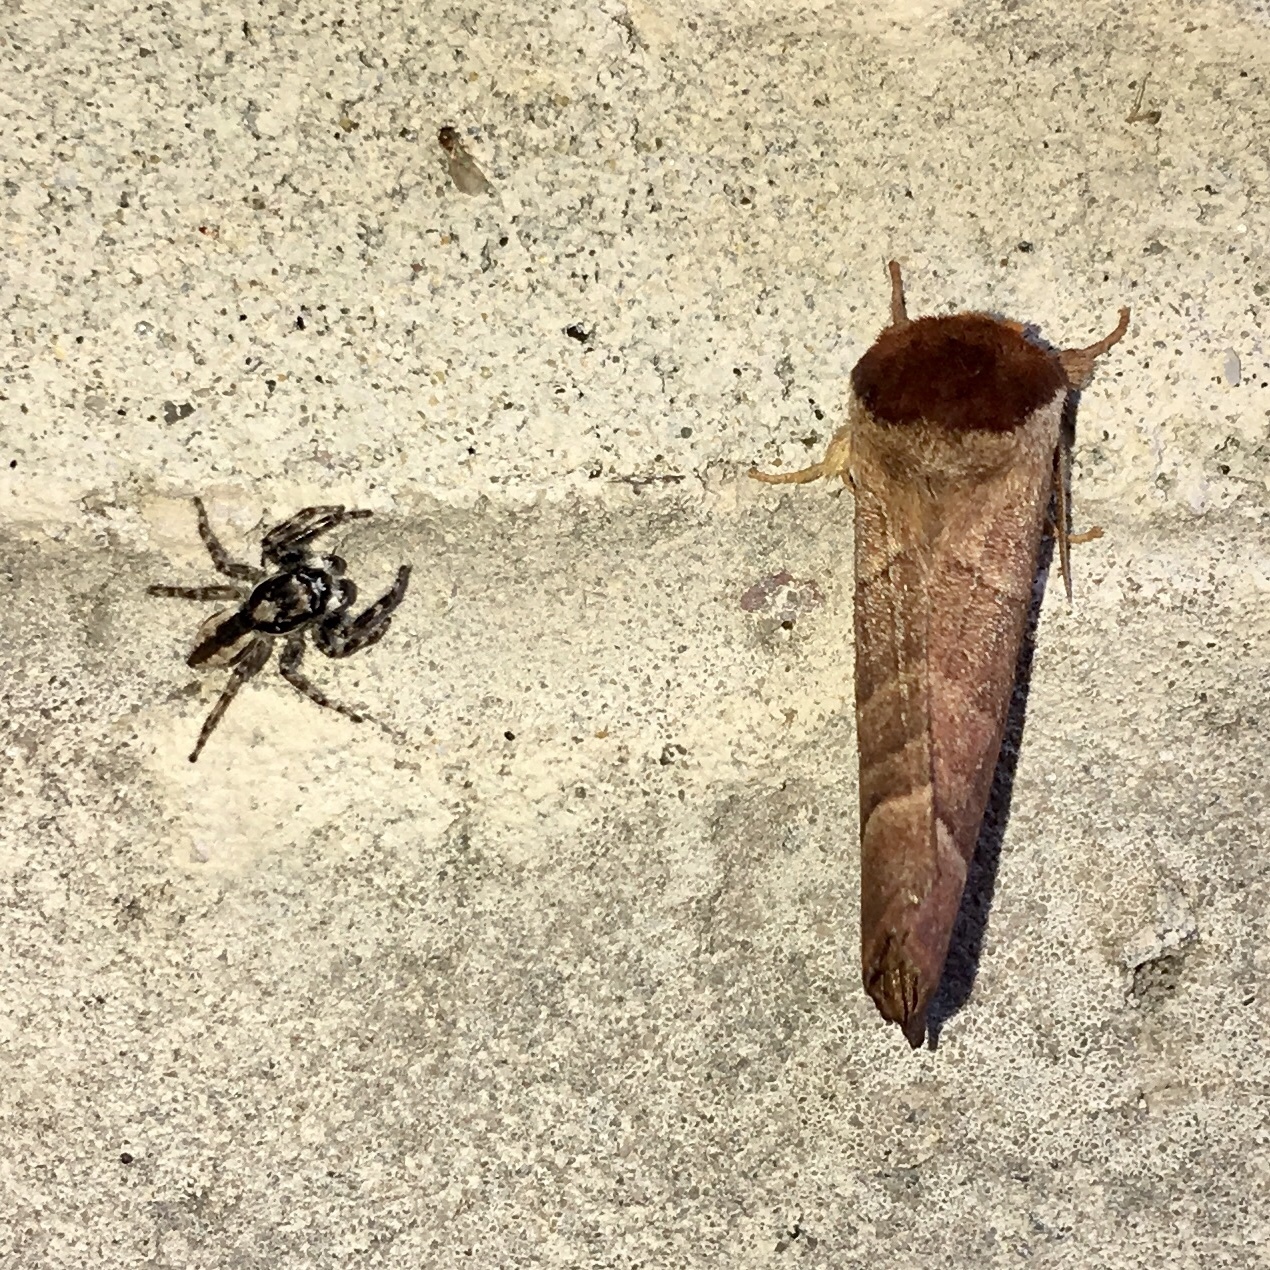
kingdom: Animalia
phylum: Arthropoda
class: Arachnida
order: Araneae
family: Salticidae
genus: Menemerus
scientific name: Menemerus bivittatus
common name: Gray wall jumper
